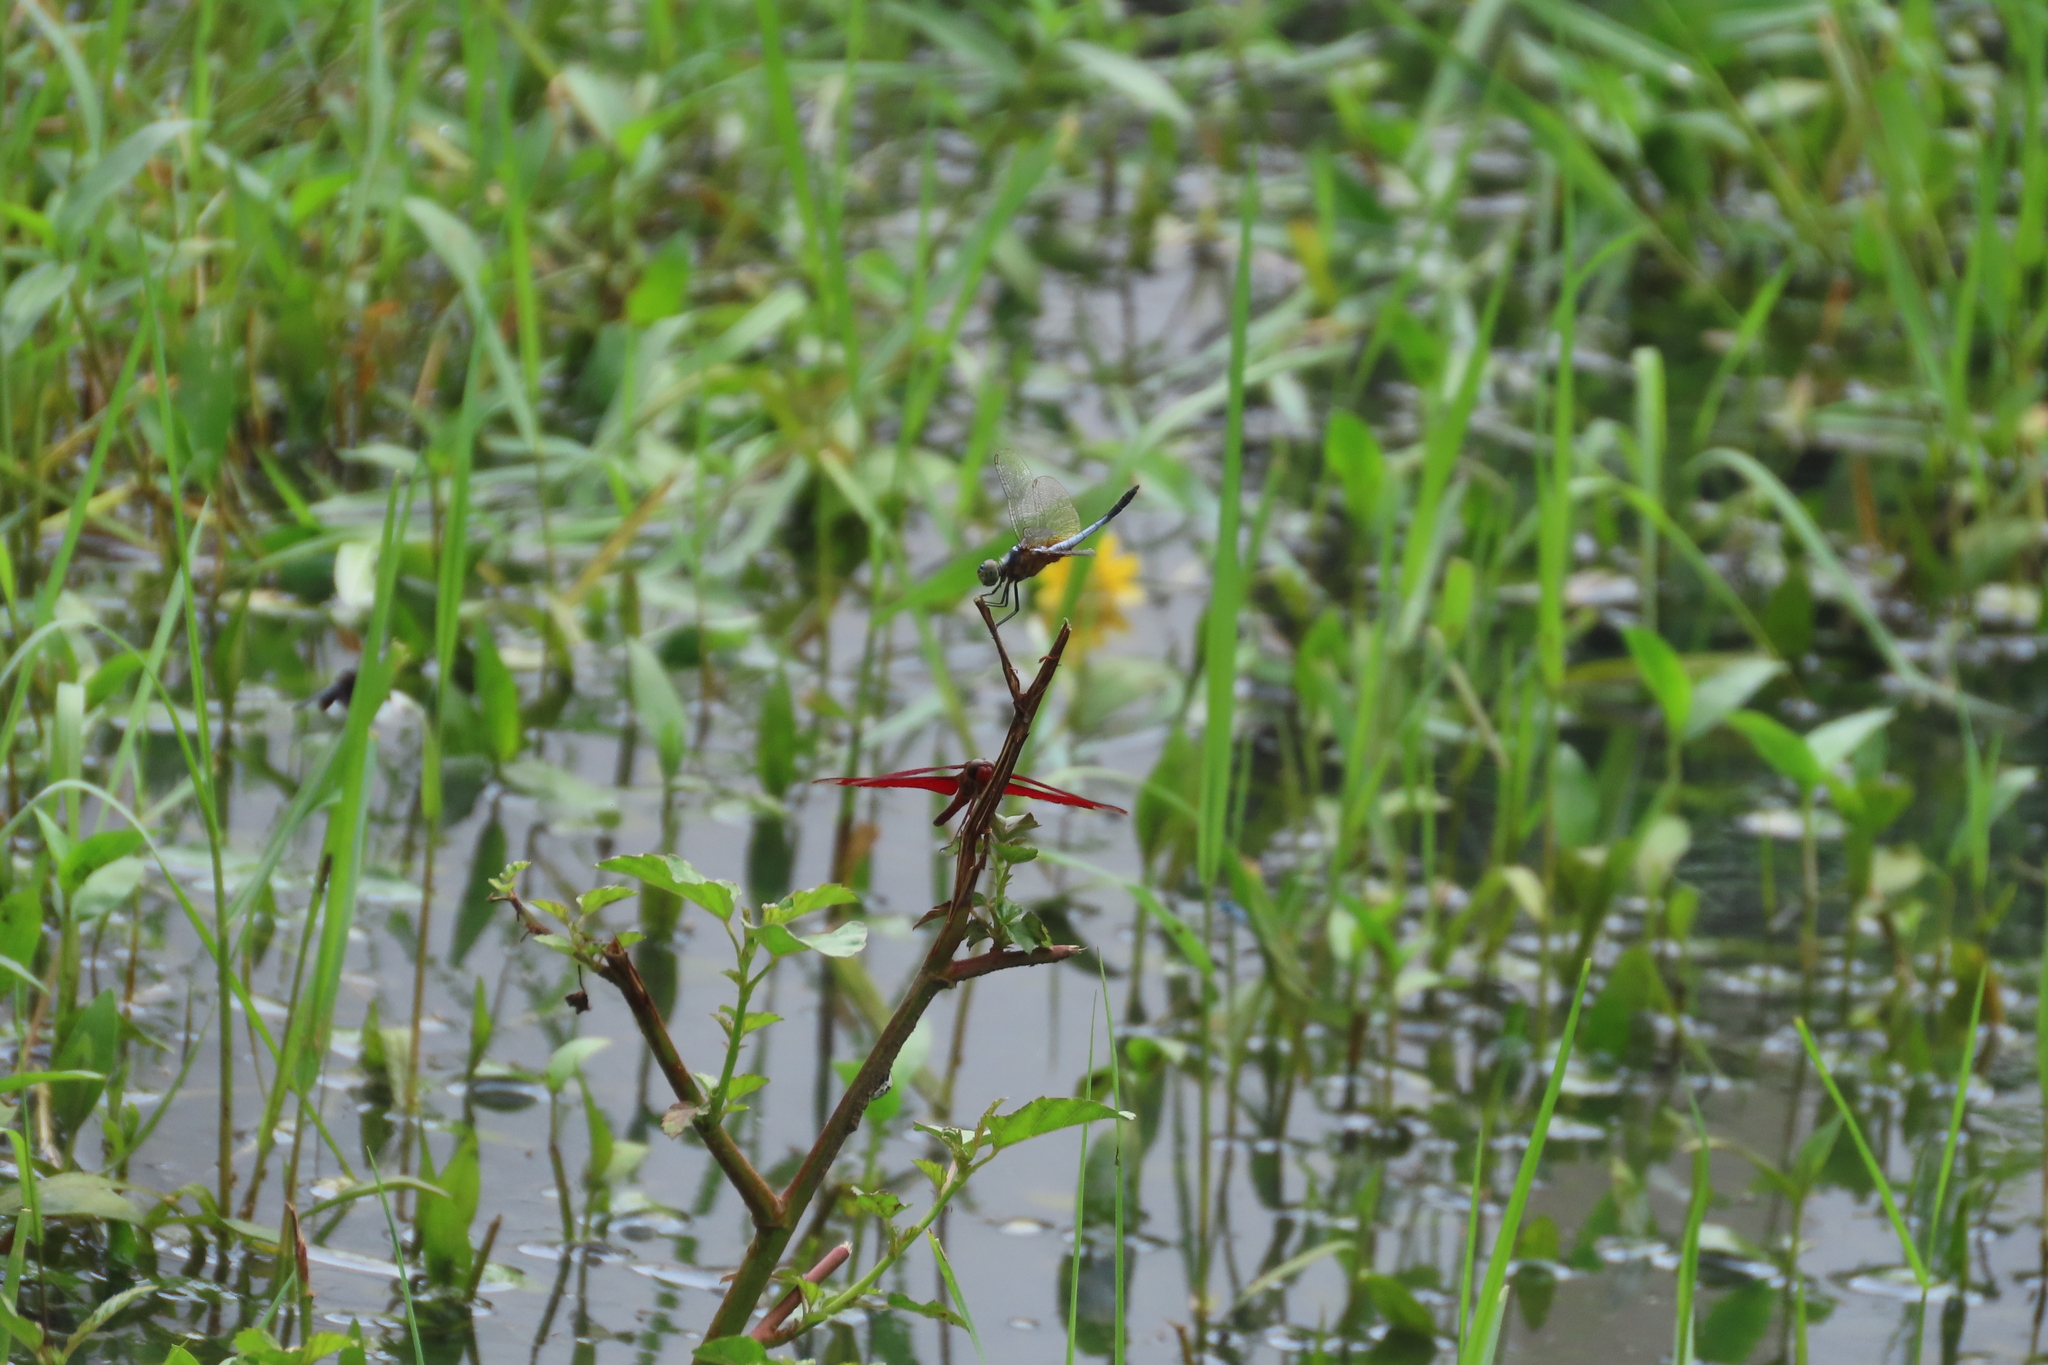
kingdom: Animalia
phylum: Arthropoda
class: Insecta
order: Odonata
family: Libellulidae
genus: Neurothemis
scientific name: Neurothemis fulvia
